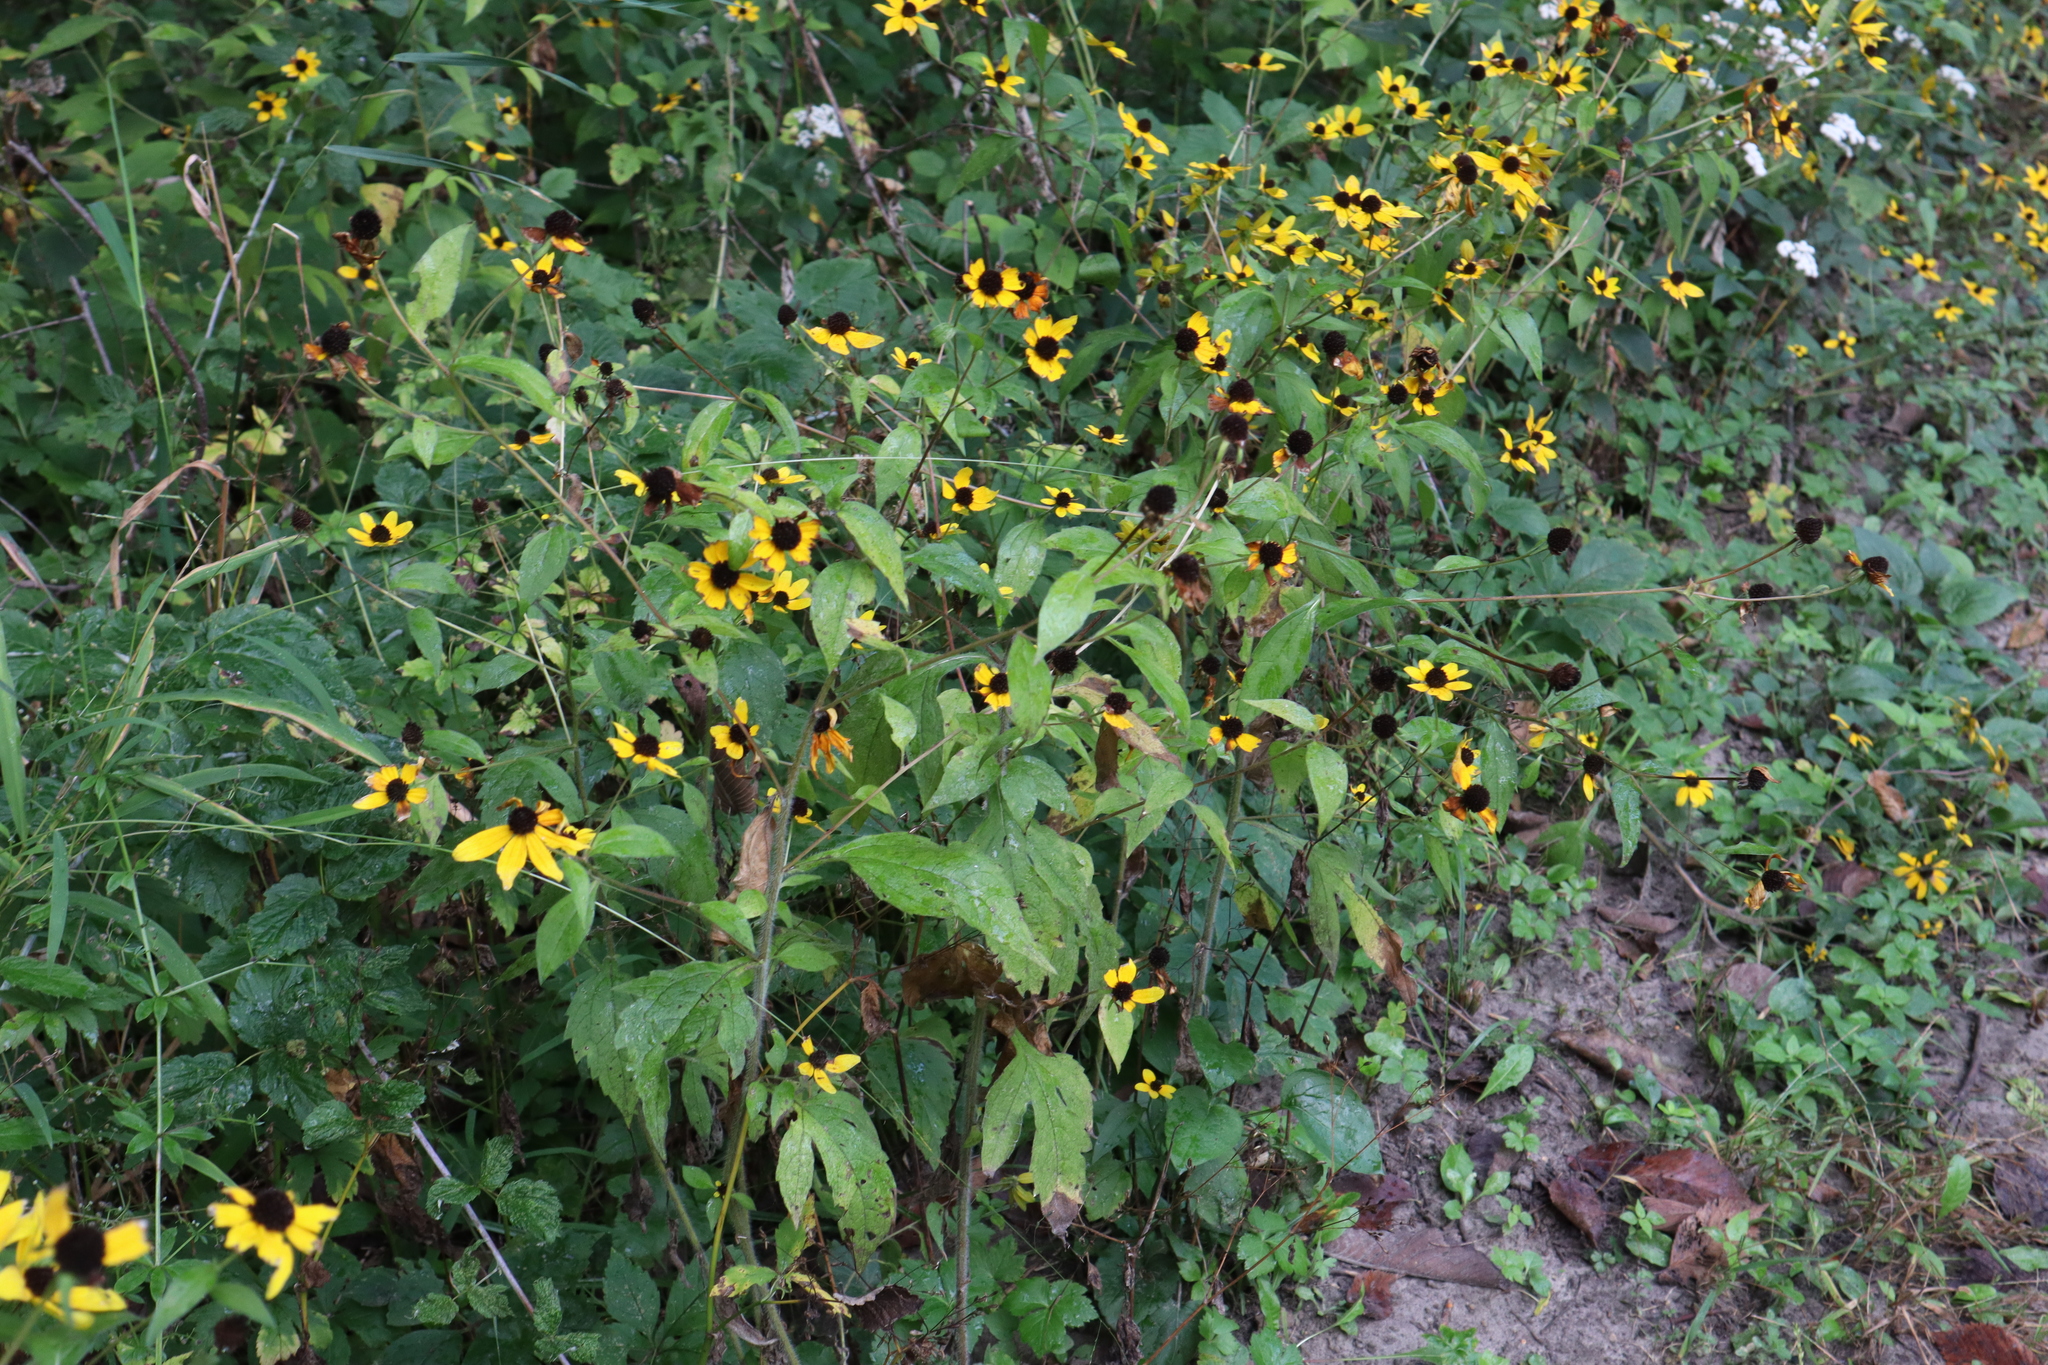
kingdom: Plantae
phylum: Tracheophyta
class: Magnoliopsida
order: Asterales
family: Asteraceae
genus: Rudbeckia
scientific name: Rudbeckia triloba
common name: Thin-leaved coneflower
